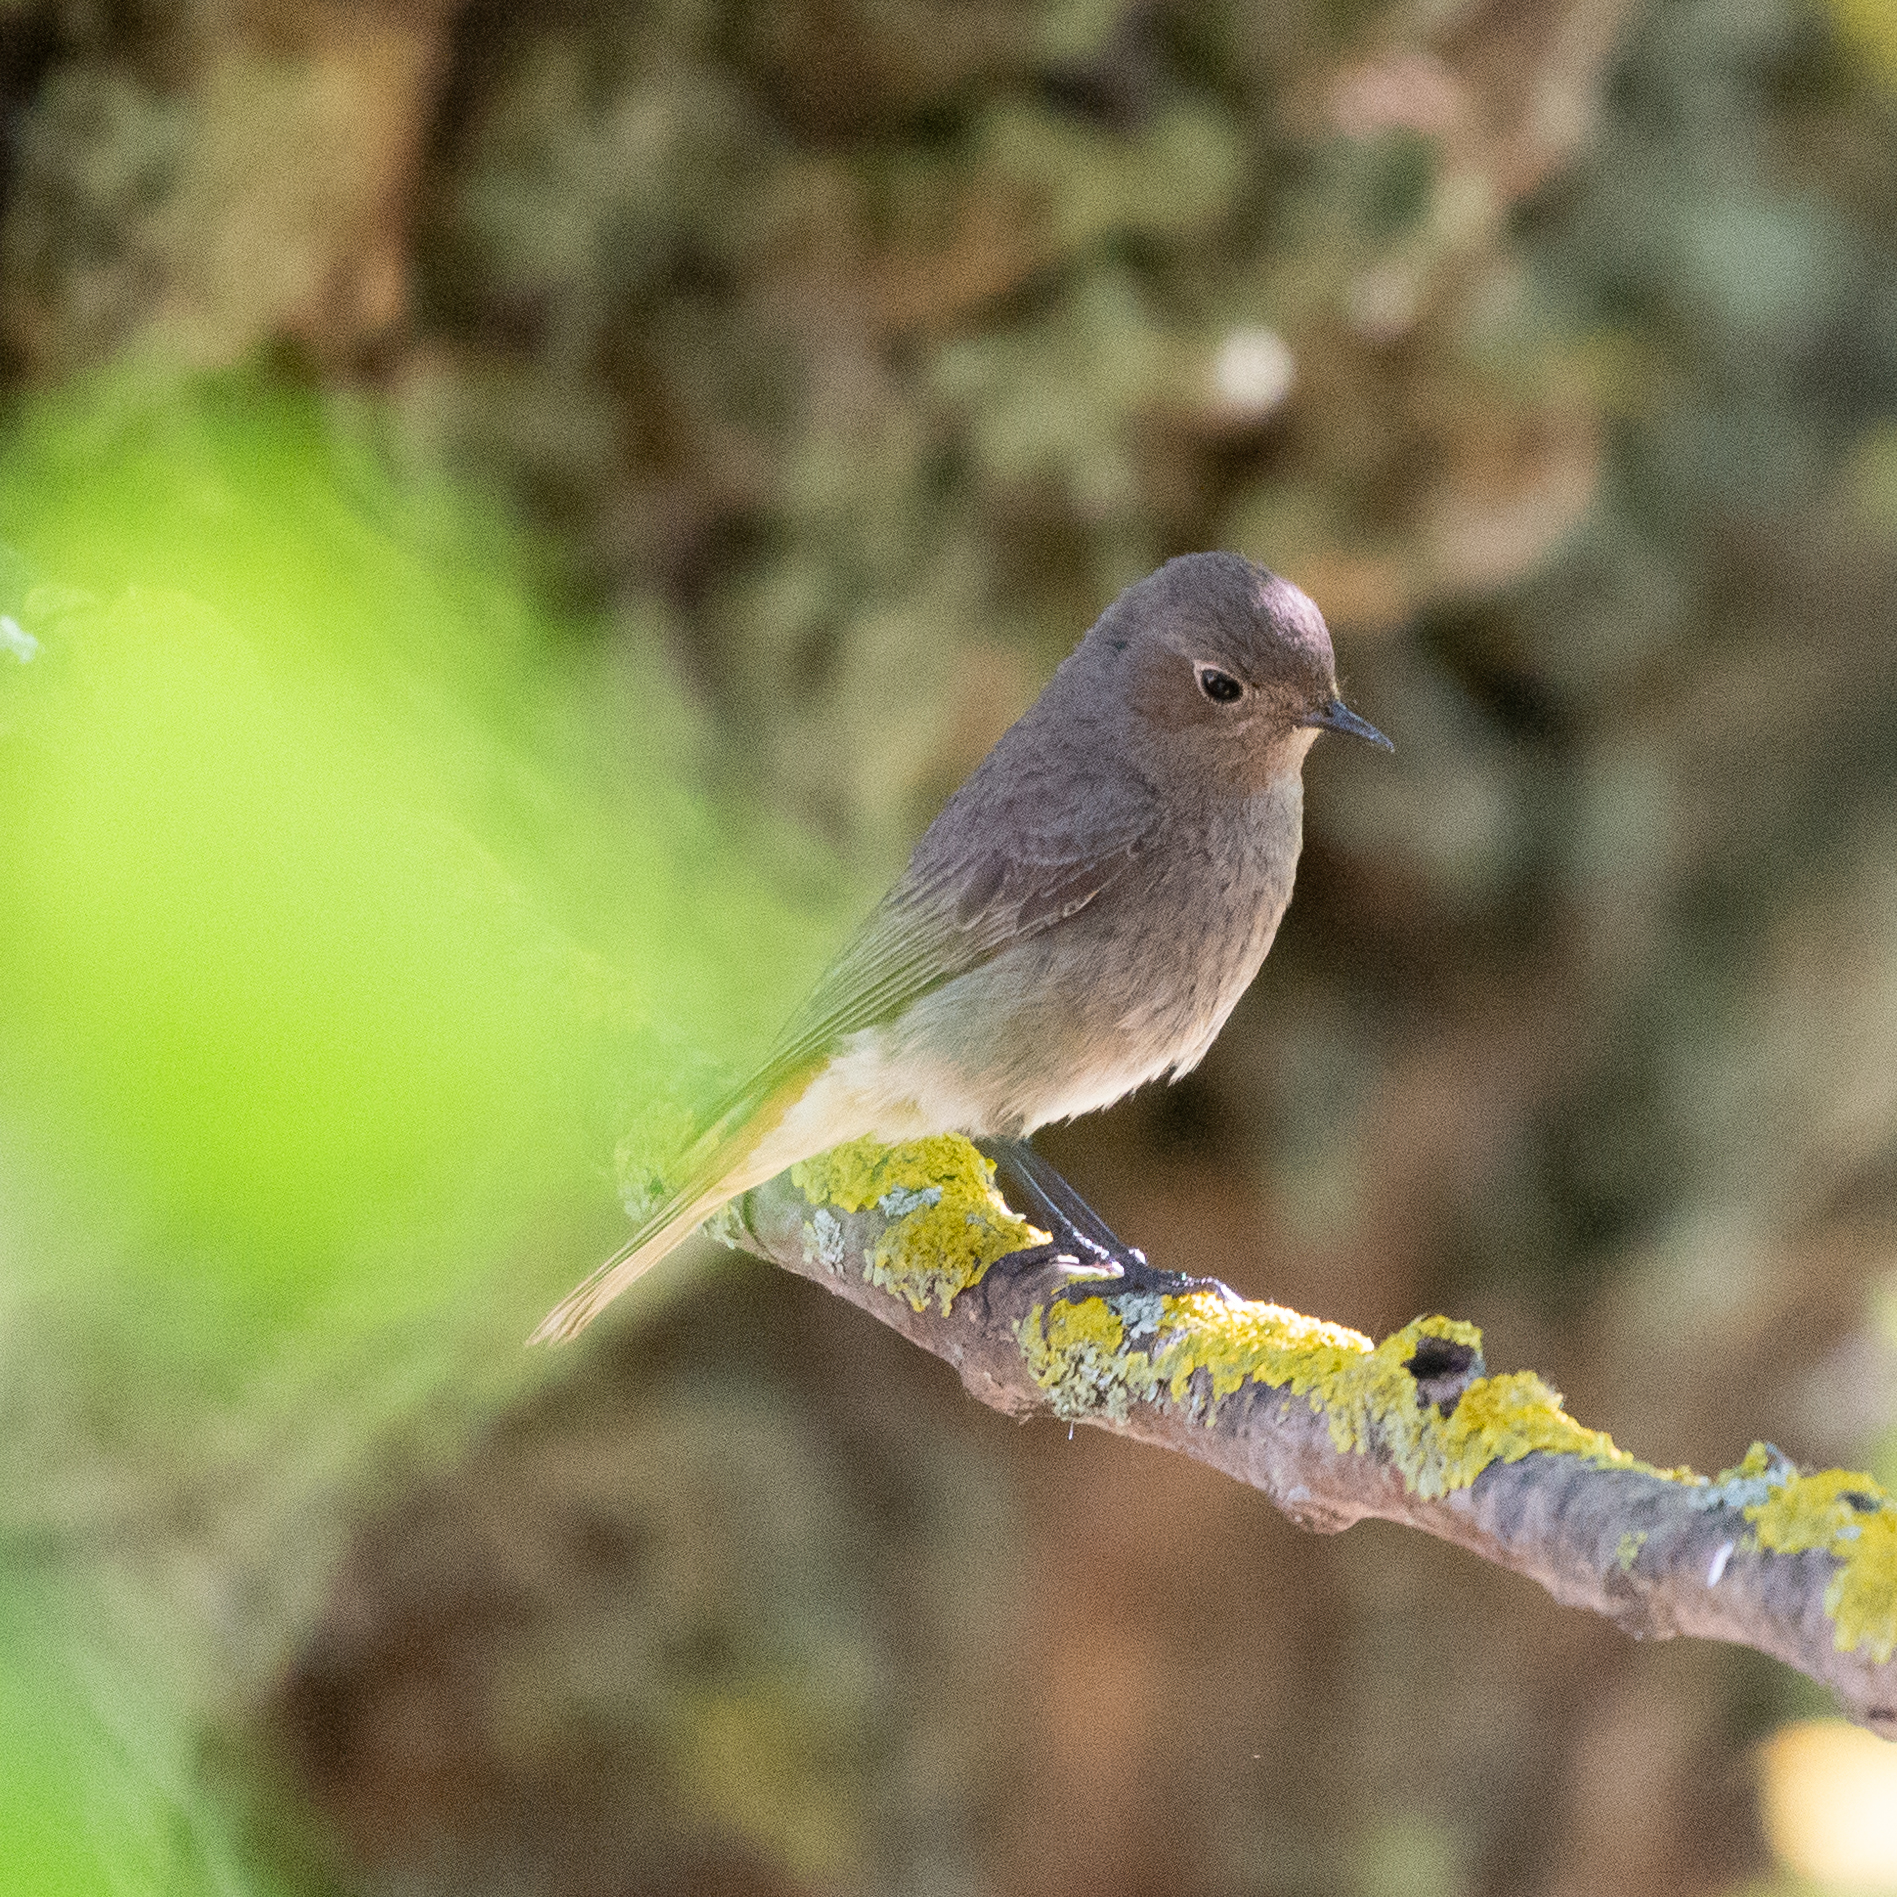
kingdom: Animalia
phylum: Chordata
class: Aves
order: Passeriformes
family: Muscicapidae
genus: Phoenicurus
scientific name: Phoenicurus ochruros
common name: Black redstart
